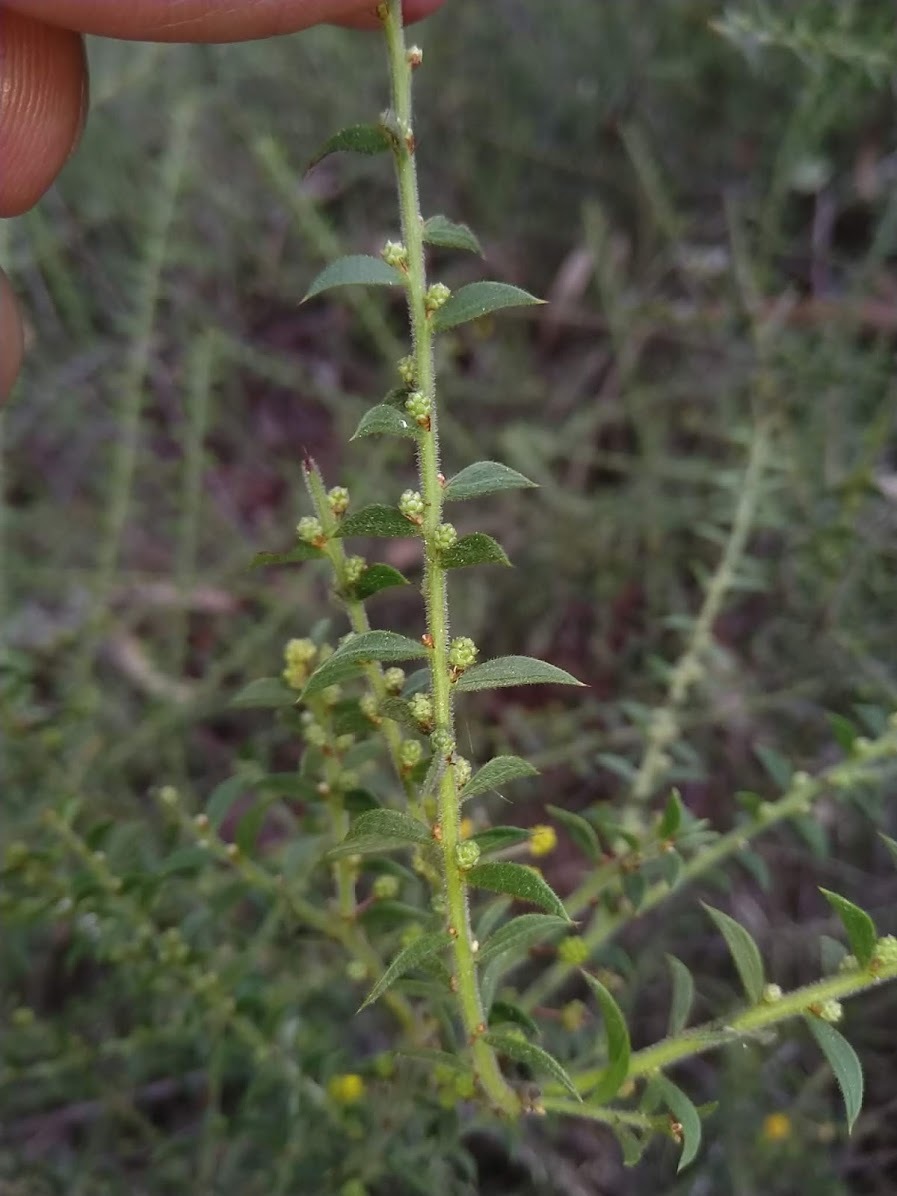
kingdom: Plantae
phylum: Tracheophyta
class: Magnoliopsida
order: Fabales
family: Fabaceae
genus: Acacia
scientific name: Acacia amblygona
